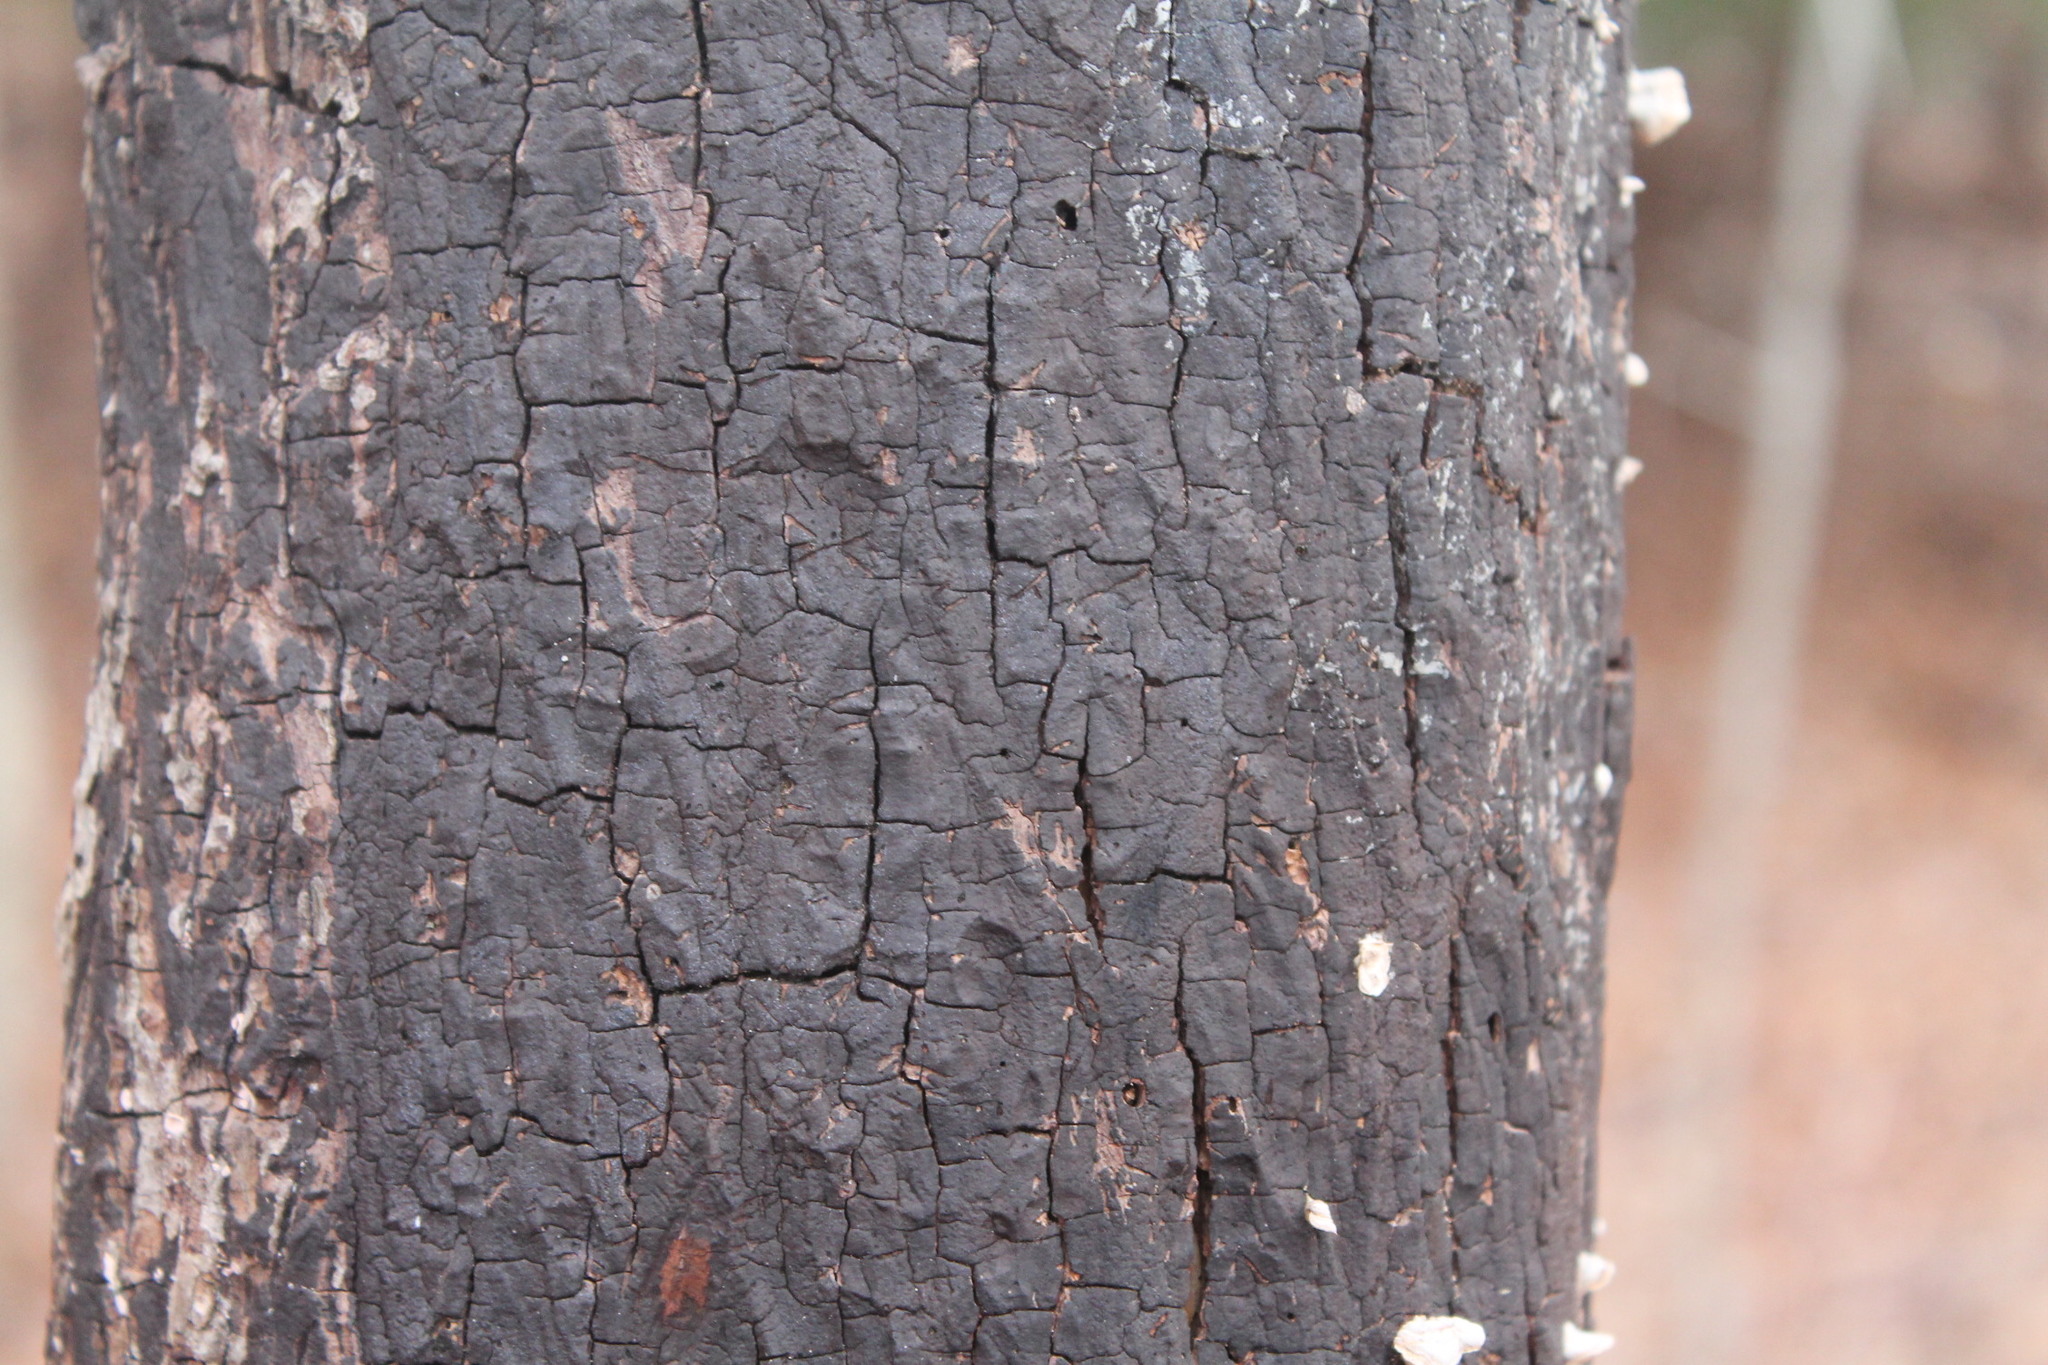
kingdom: Fungi
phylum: Ascomycota
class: Sordariomycetes
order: Xylariales
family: Diatrypaceae
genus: Diatrype
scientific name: Diatrype stigma
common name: Common tarcrust
